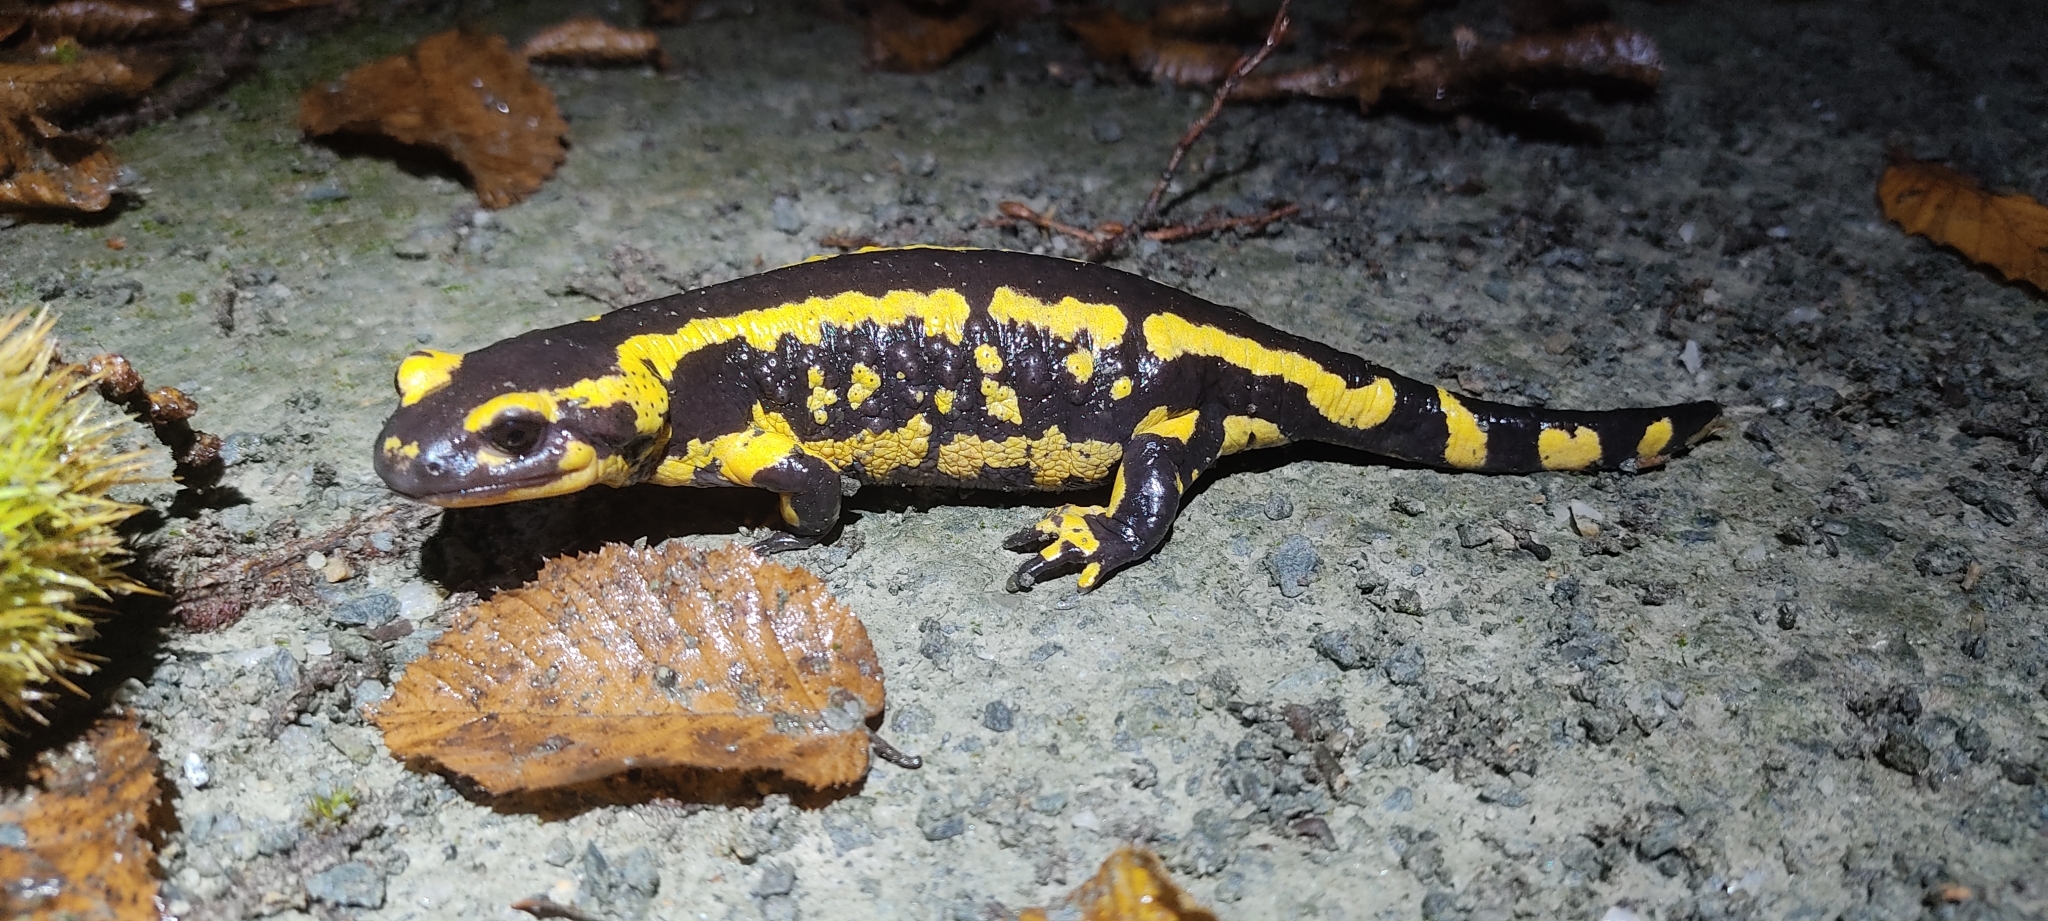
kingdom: Animalia
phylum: Chordata
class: Amphibia
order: Caudata
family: Salamandridae
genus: Salamandra
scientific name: Salamandra salamandra
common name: Fire salamander
